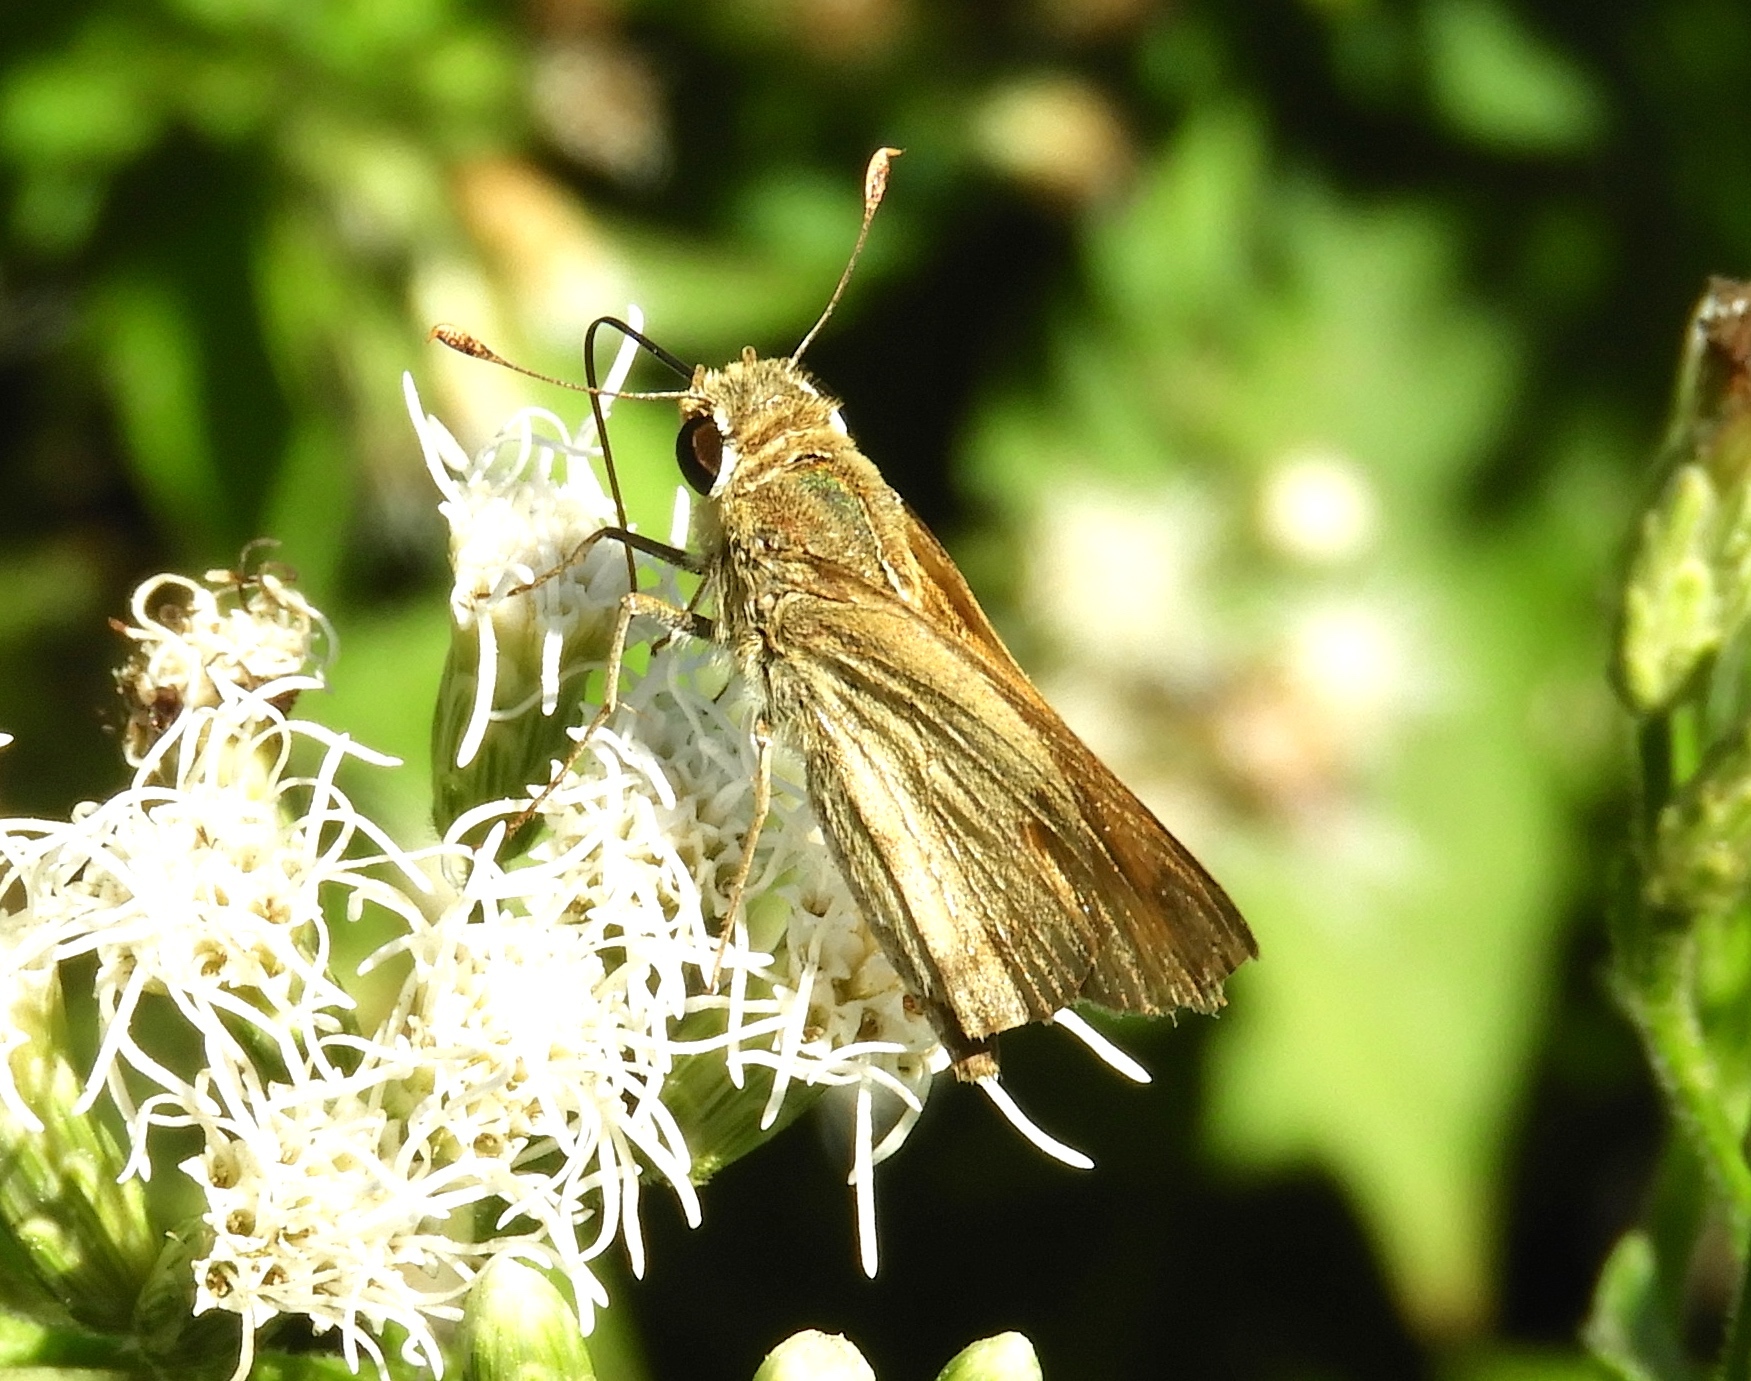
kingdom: Animalia
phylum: Arthropoda
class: Insecta
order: Lepidoptera
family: Hesperiidae
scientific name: Hesperiidae
